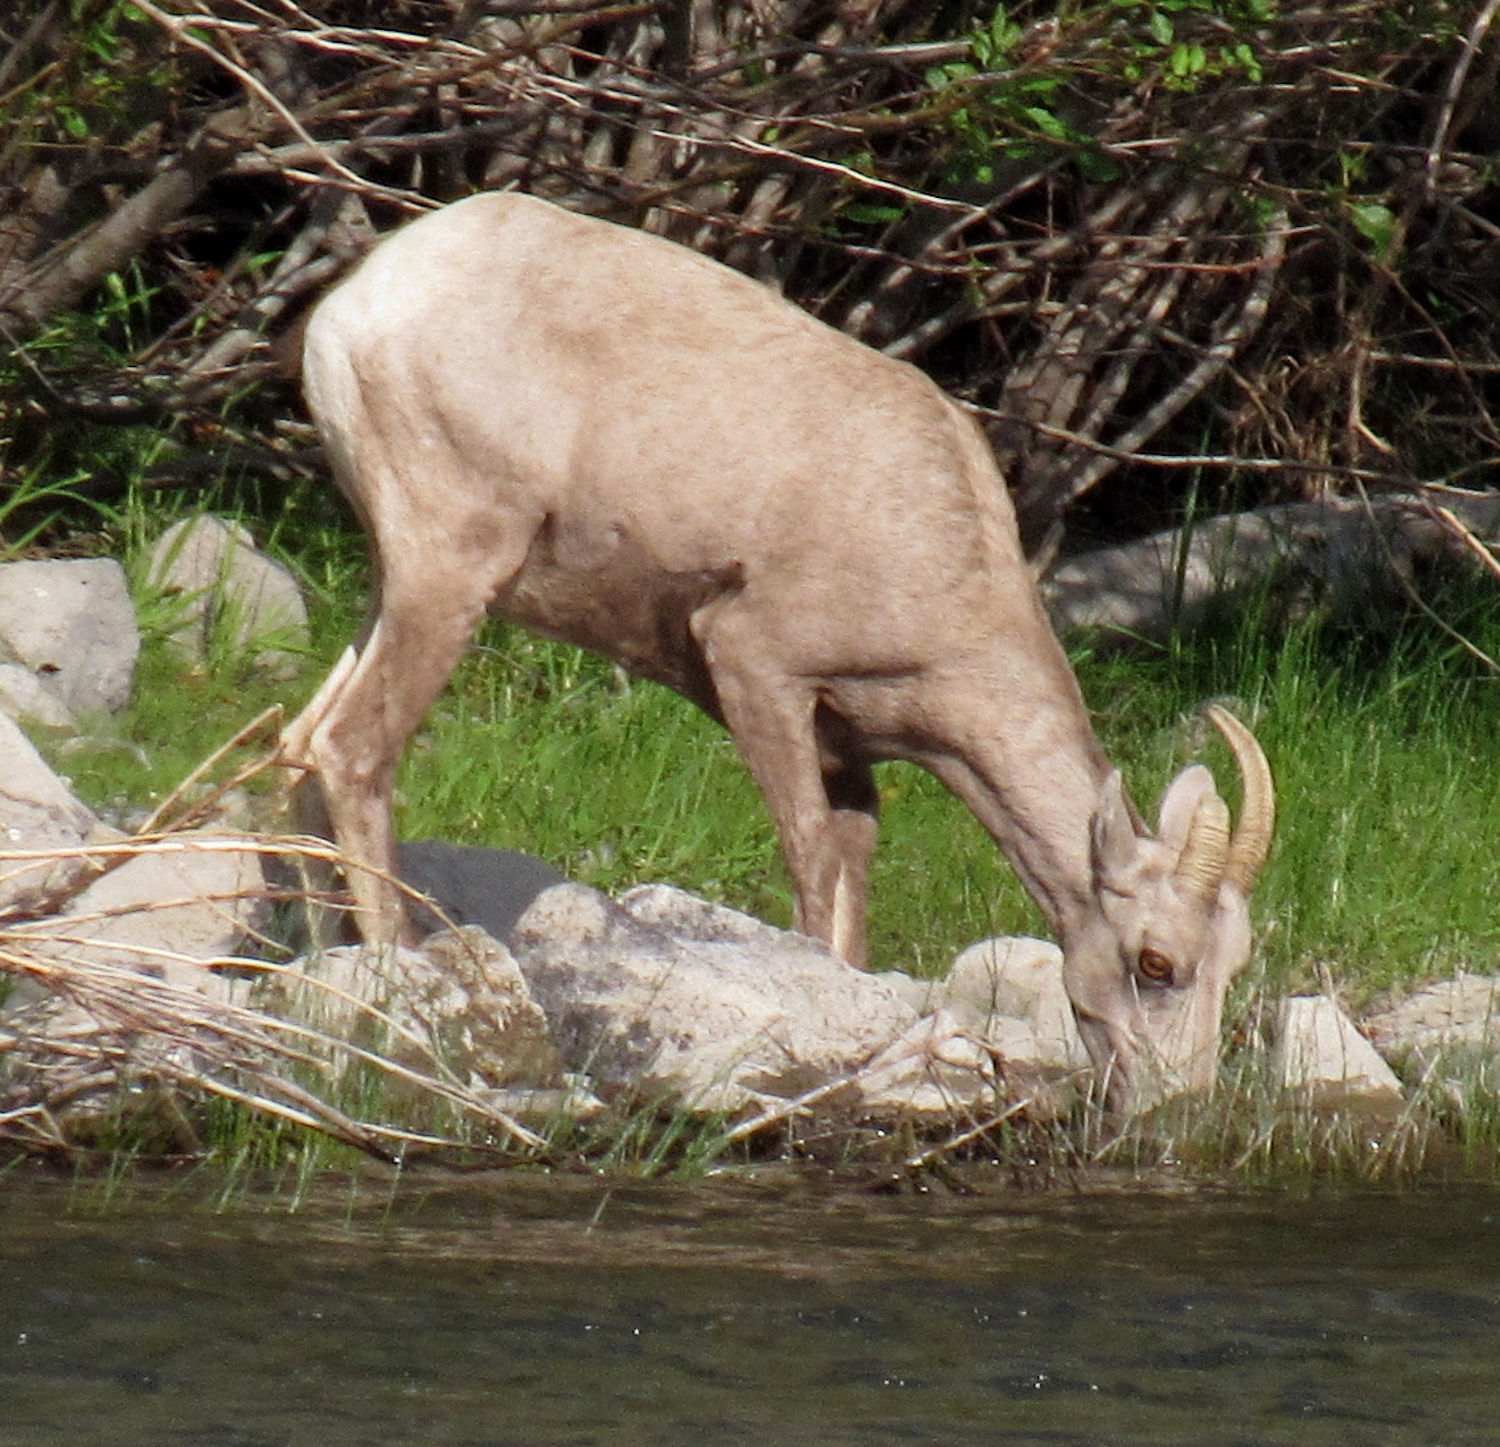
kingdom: Animalia
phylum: Chordata
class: Mammalia
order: Artiodactyla
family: Bovidae
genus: Ovis
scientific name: Ovis canadensis
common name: Bighorn sheep
